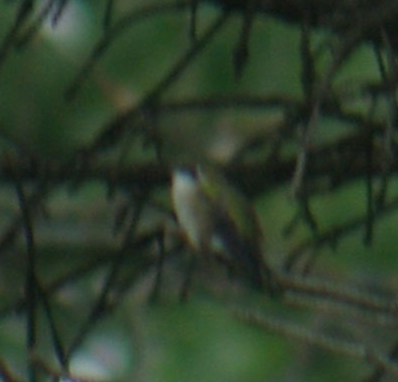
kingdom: Animalia
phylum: Chordata
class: Aves
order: Apodiformes
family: Trochilidae
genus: Archilochus
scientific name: Archilochus colubris
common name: Ruby-throated hummingbird
